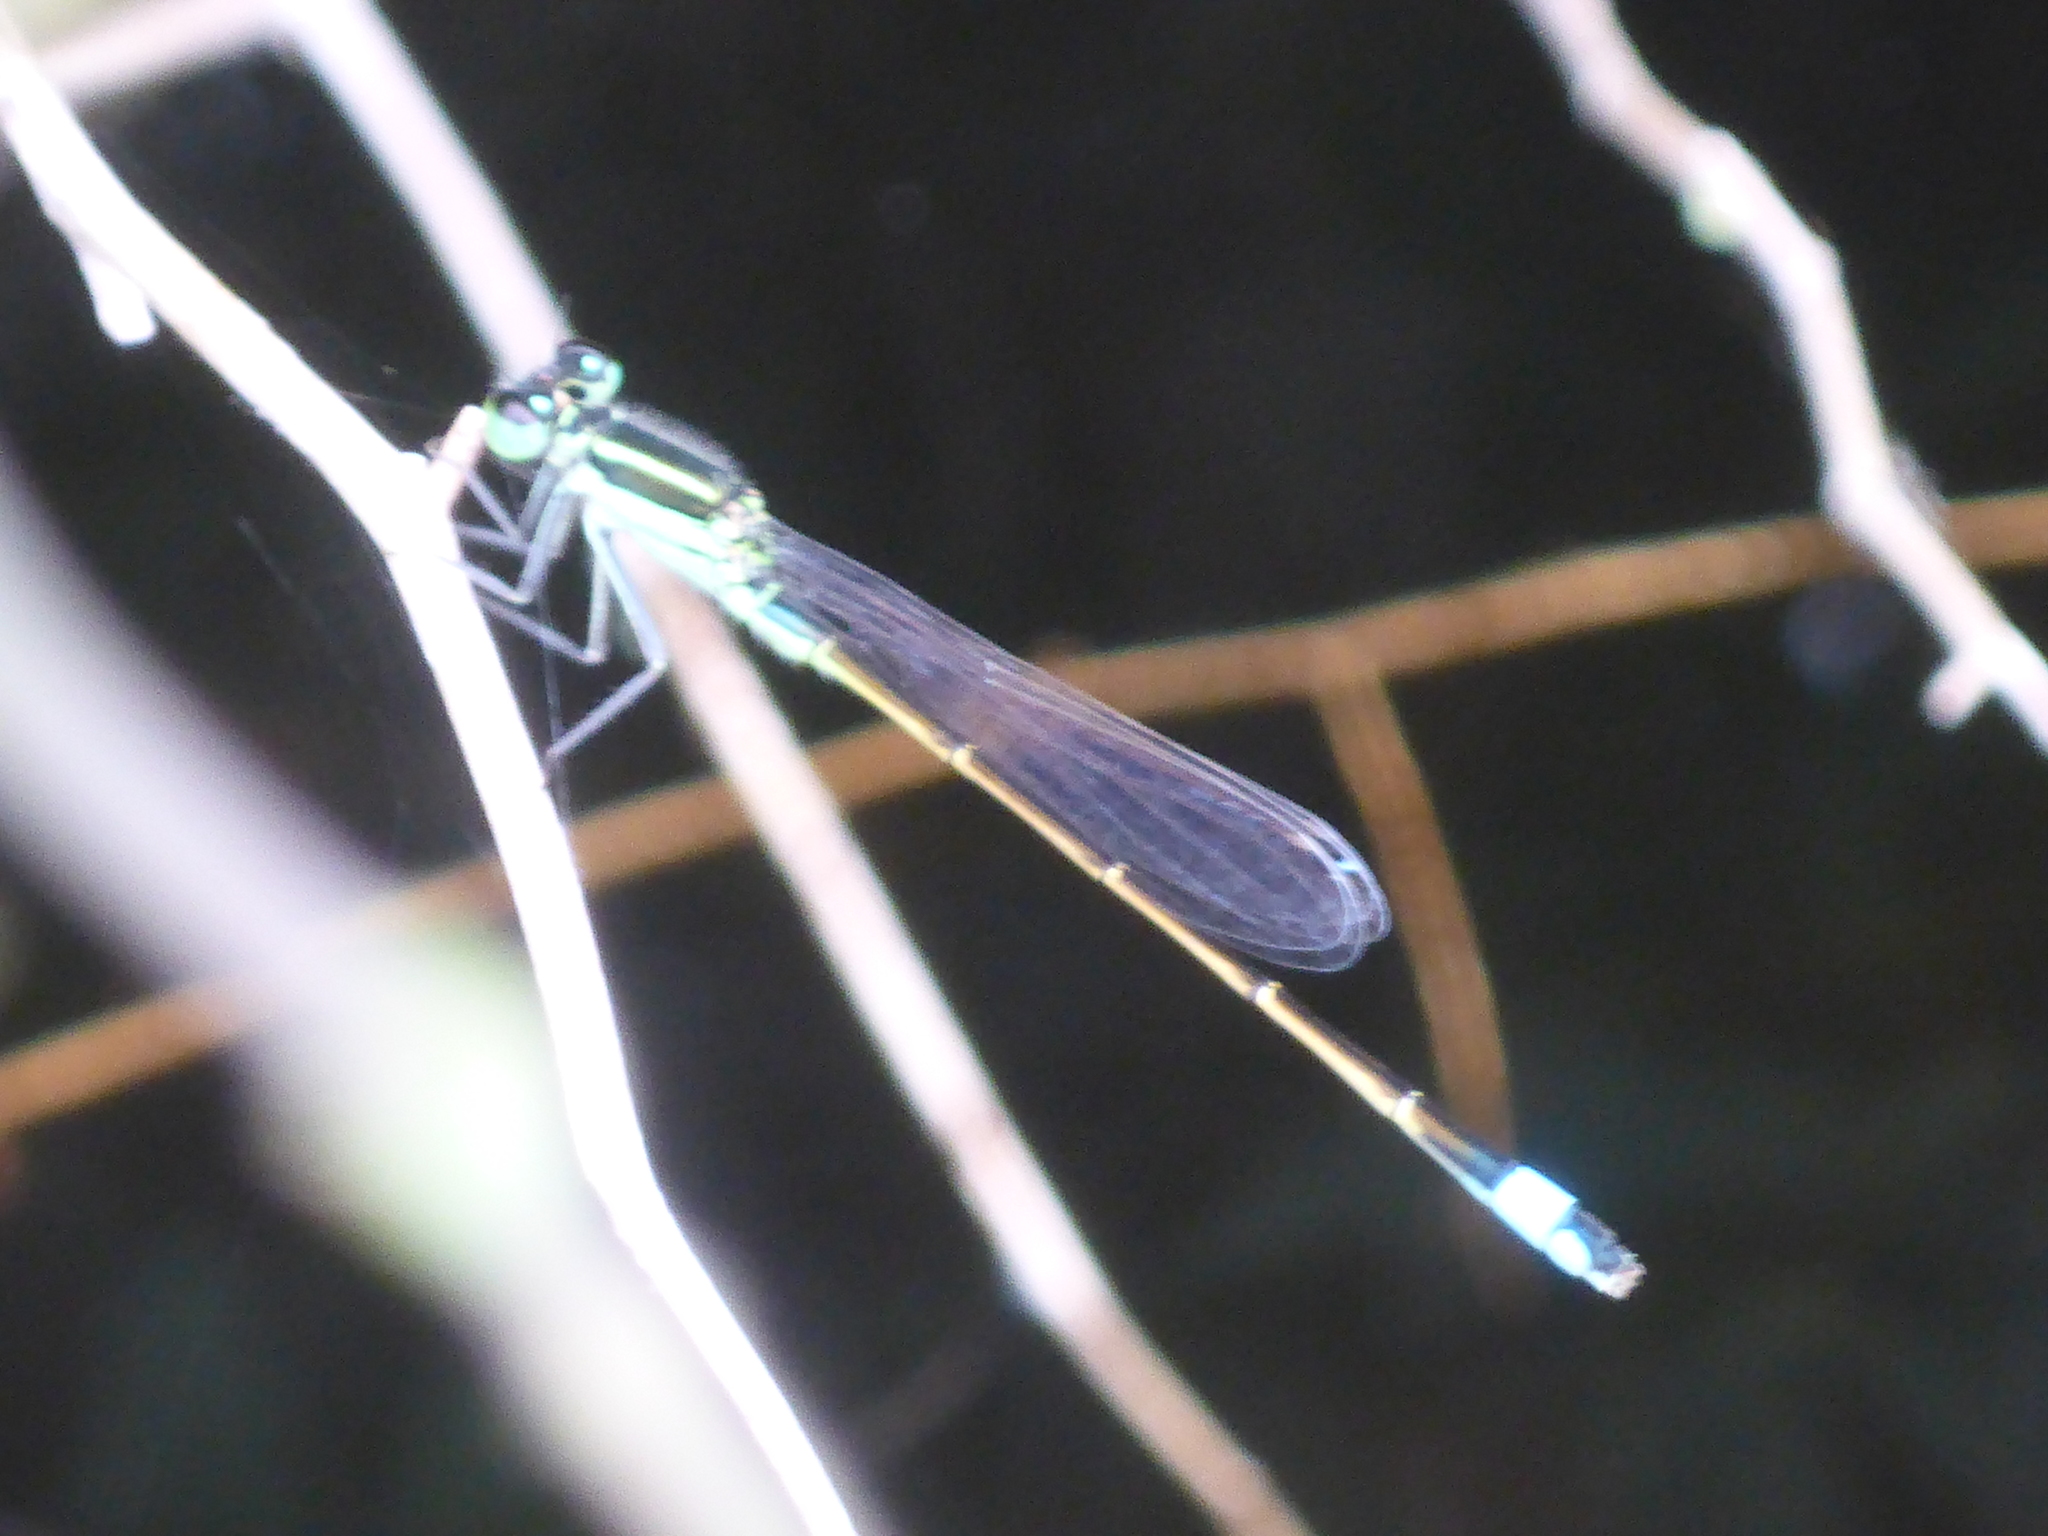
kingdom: Animalia
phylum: Arthropoda
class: Insecta
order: Odonata
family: Coenagrionidae
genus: Ischnura
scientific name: Ischnura ramburii
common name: Rambur's forktail
